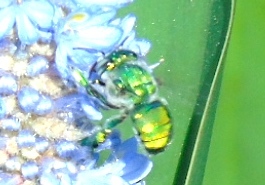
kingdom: Animalia
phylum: Arthropoda
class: Insecta
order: Hymenoptera
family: Apidae
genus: Euglossa
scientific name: Euglossa
